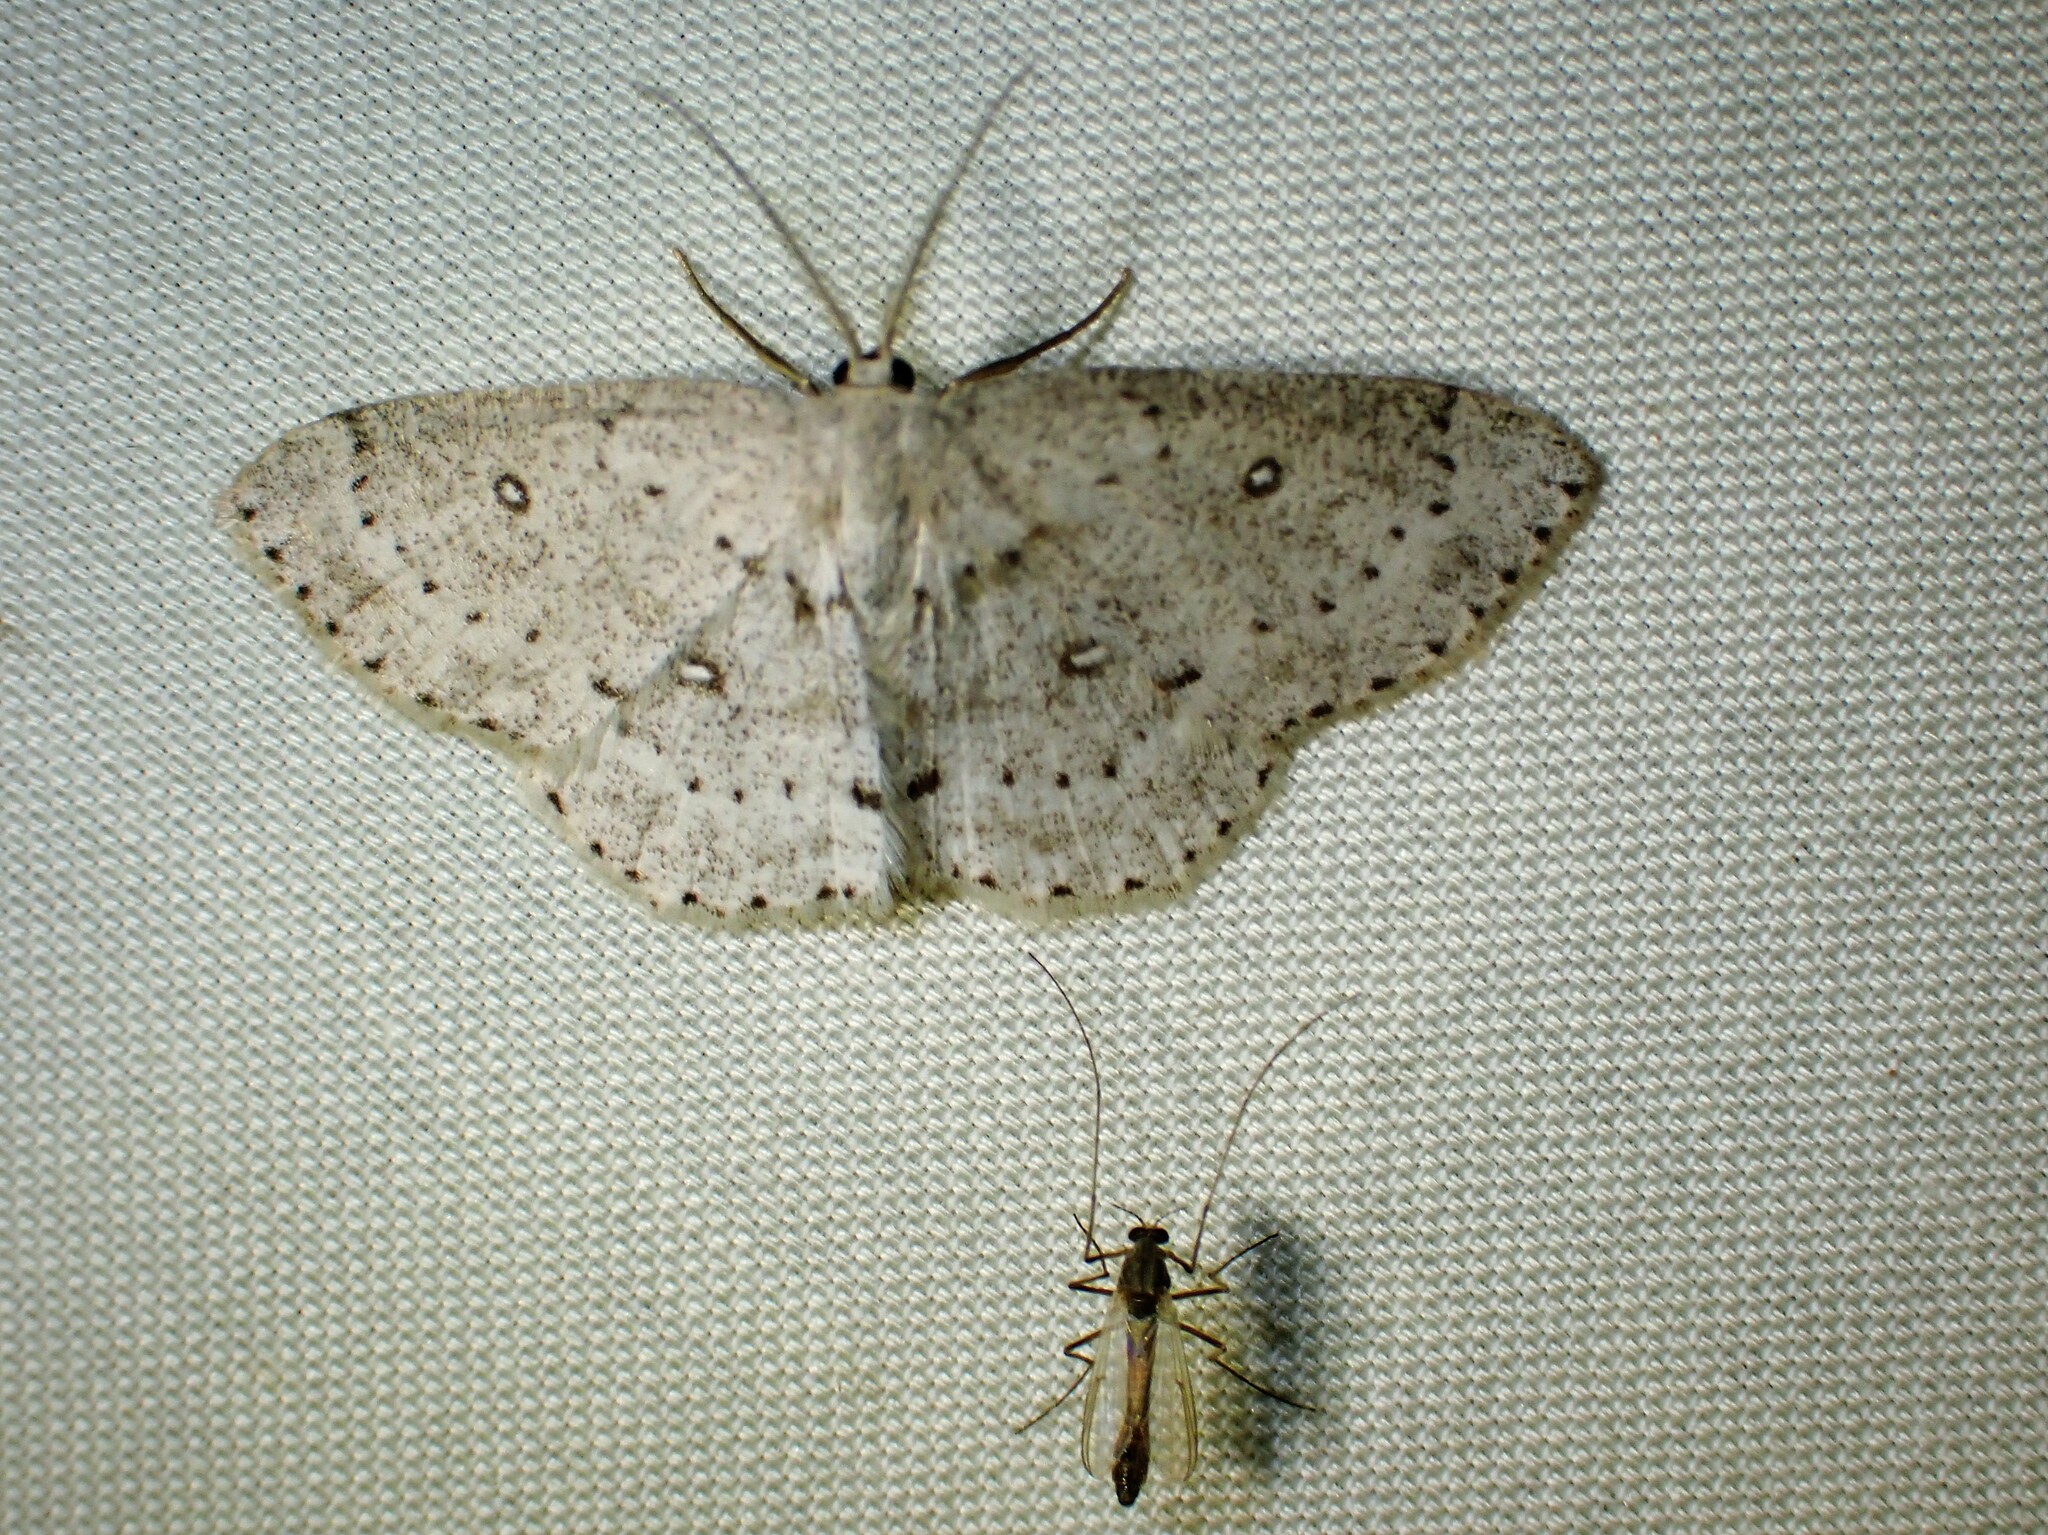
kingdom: Animalia
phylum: Arthropoda
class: Insecta
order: Lepidoptera
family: Geometridae
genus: Cyclophora
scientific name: Cyclophora pendulinaria
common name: Sweet fern geometer
